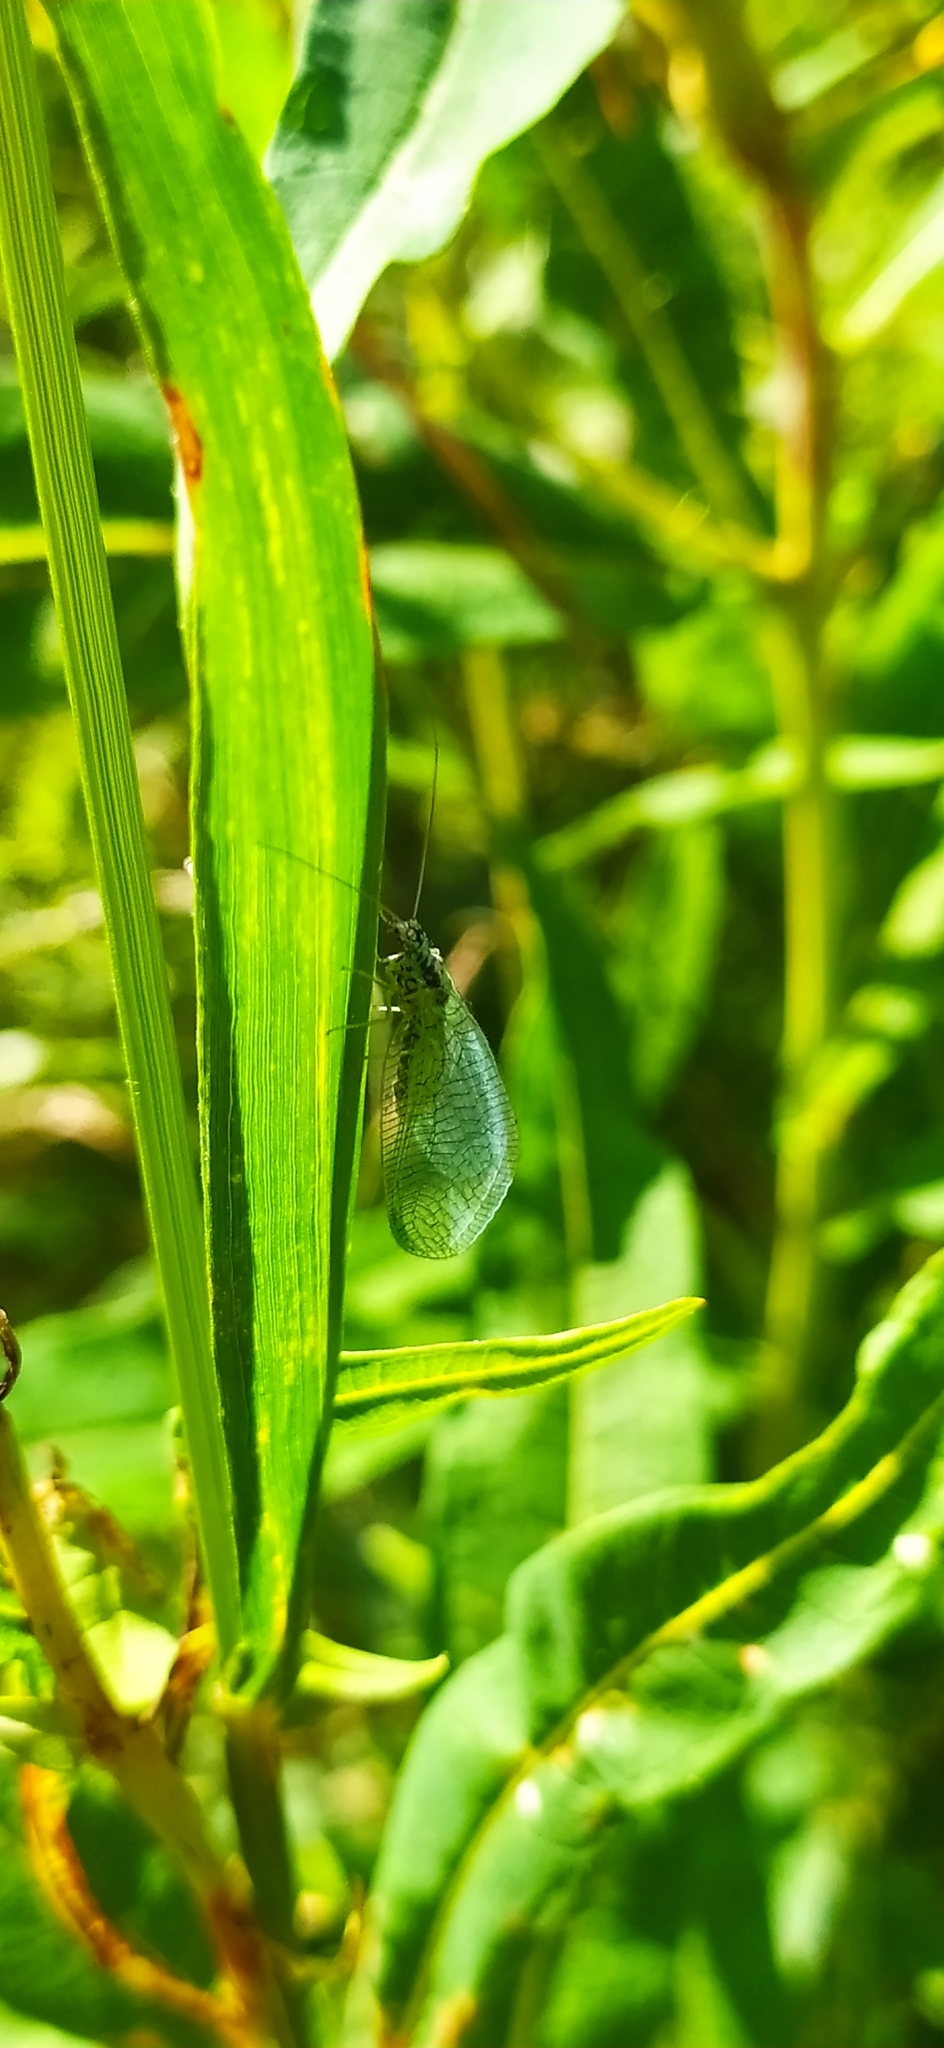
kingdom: Animalia
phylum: Arthropoda
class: Insecta
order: Neuroptera
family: Chrysopidae
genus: Chrysopa
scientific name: Chrysopa perla
